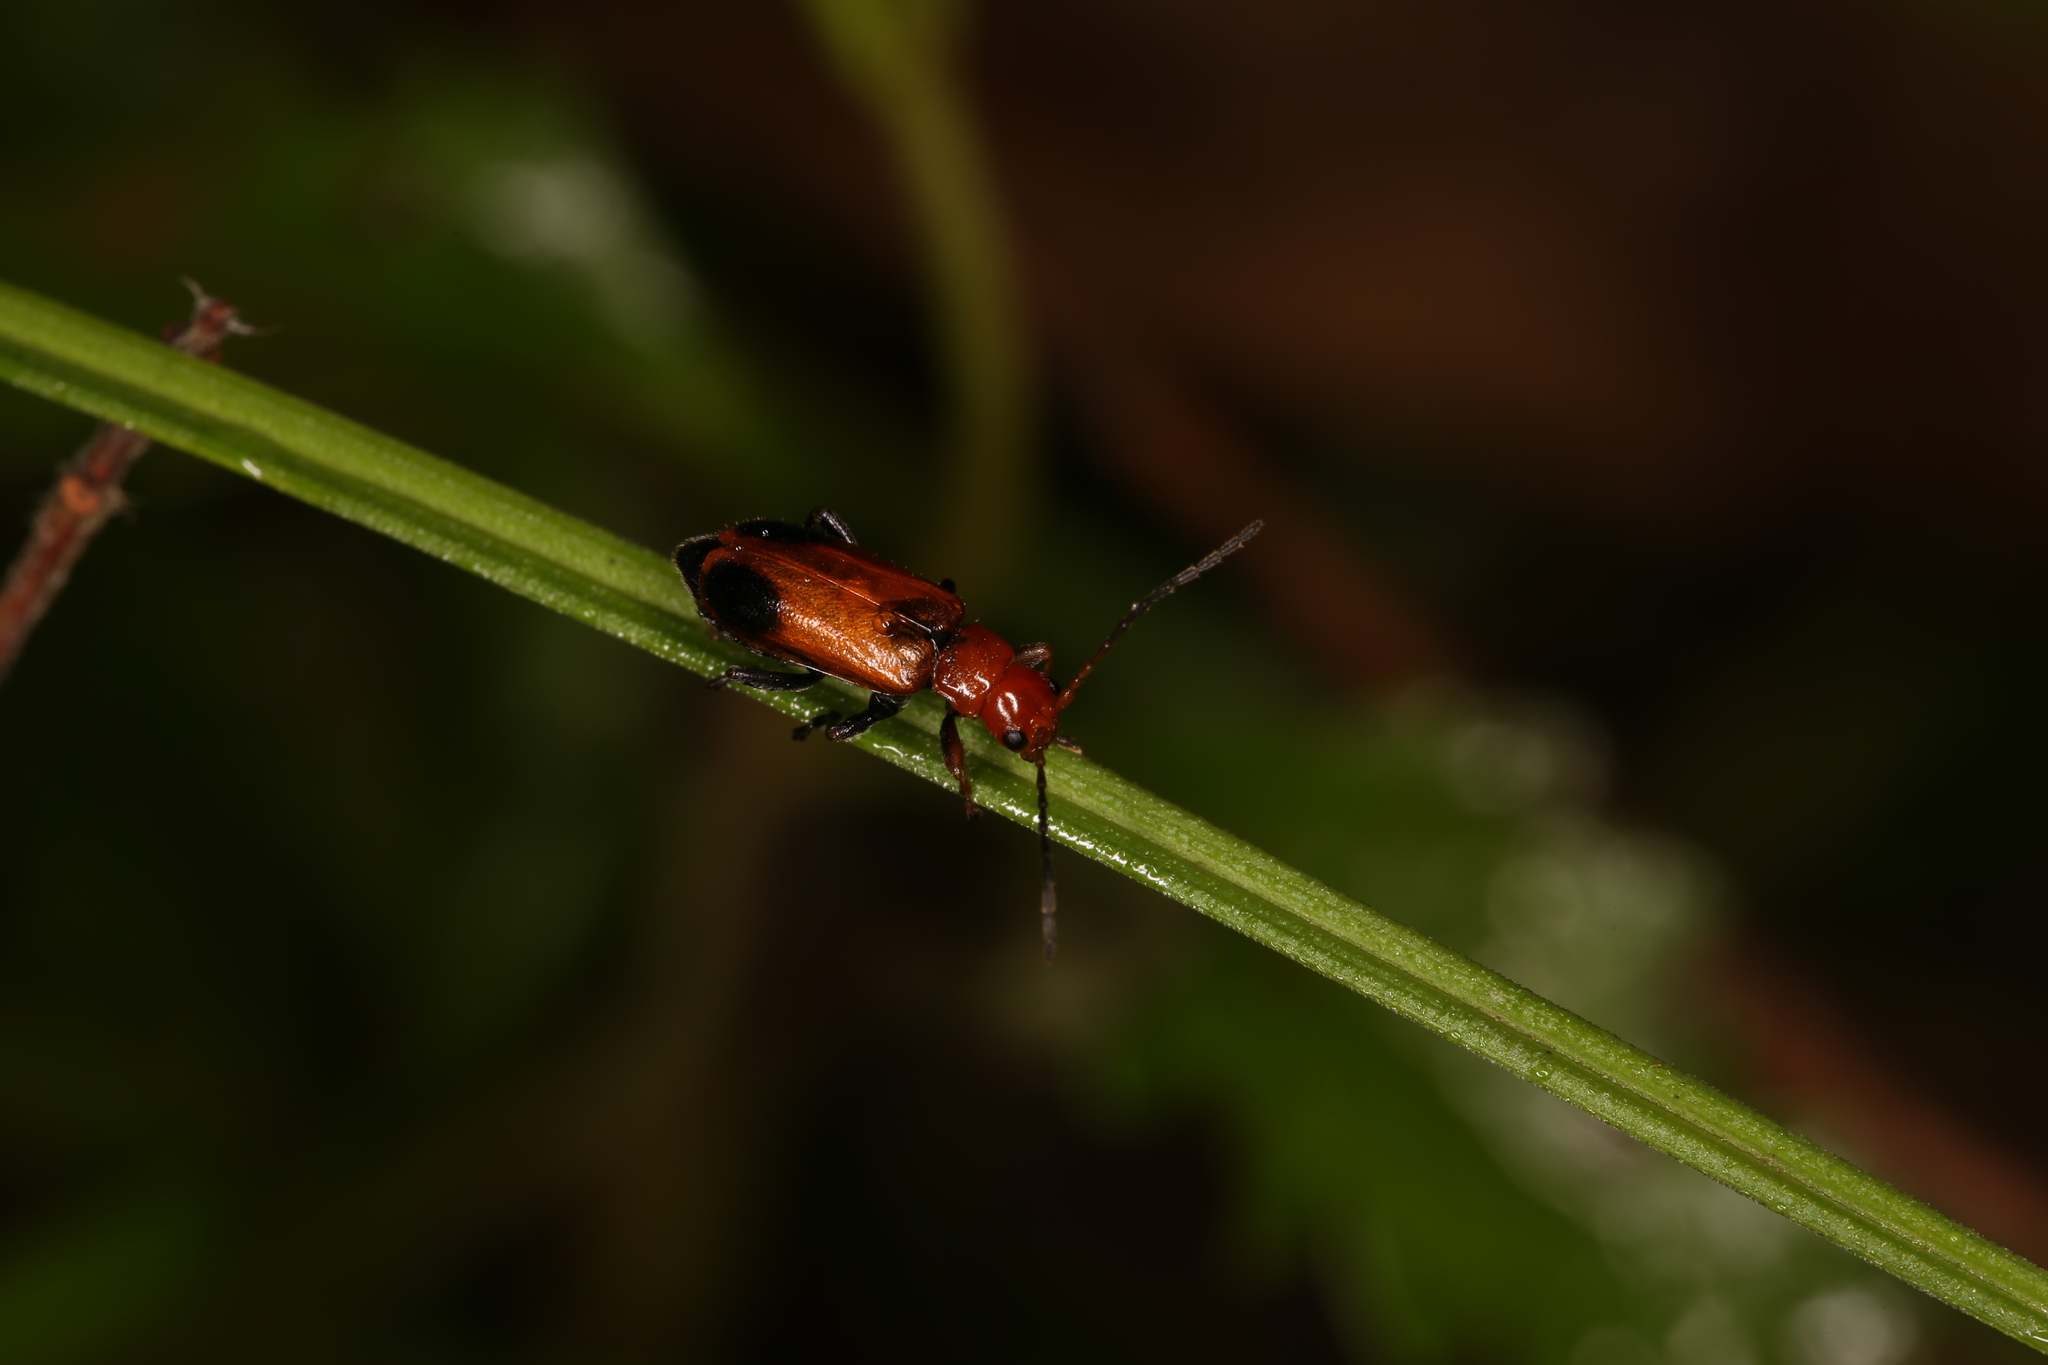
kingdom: Animalia
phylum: Arthropoda
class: Insecta
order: Coleoptera
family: Chrysomelidae
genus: Phyllobrotica
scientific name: Phyllobrotica adusta
